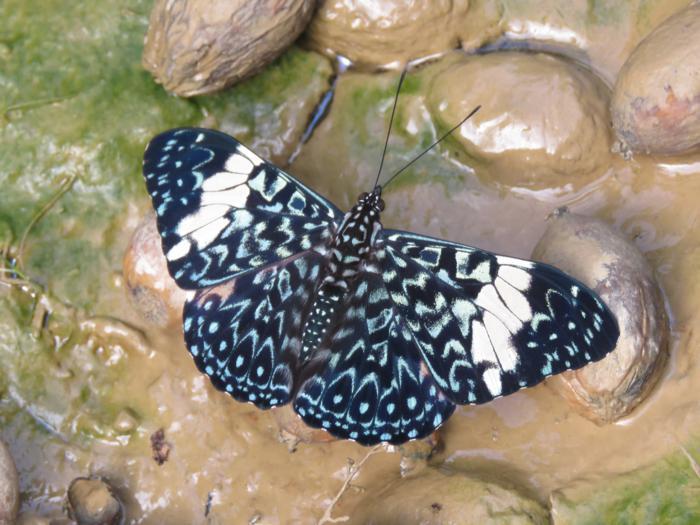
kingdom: Animalia
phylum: Arthropoda
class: Insecta
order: Lepidoptera
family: Nymphalidae
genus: Hamadryas
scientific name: Hamadryas amphinome
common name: Red cracker
